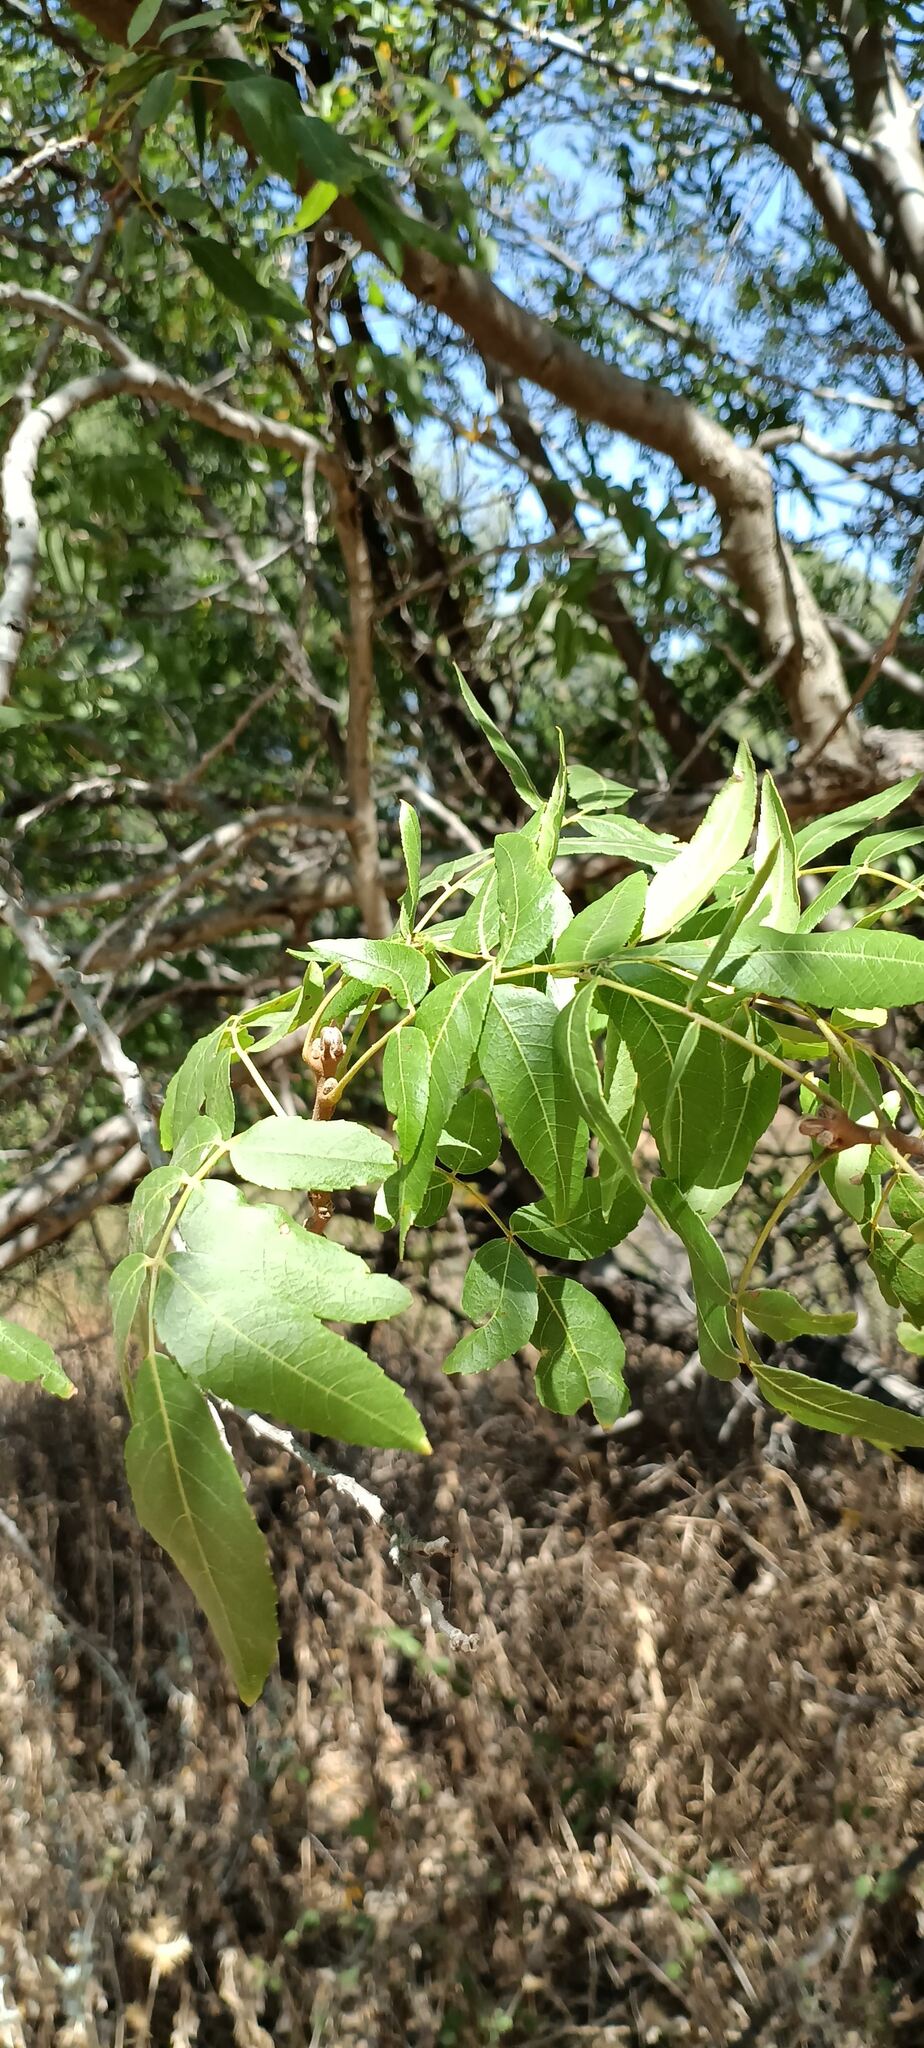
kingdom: Plantae
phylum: Tracheophyta
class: Magnoliopsida
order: Fagales
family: Juglandaceae
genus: Juglans
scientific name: Juglans californica
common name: Southern california black walnut
